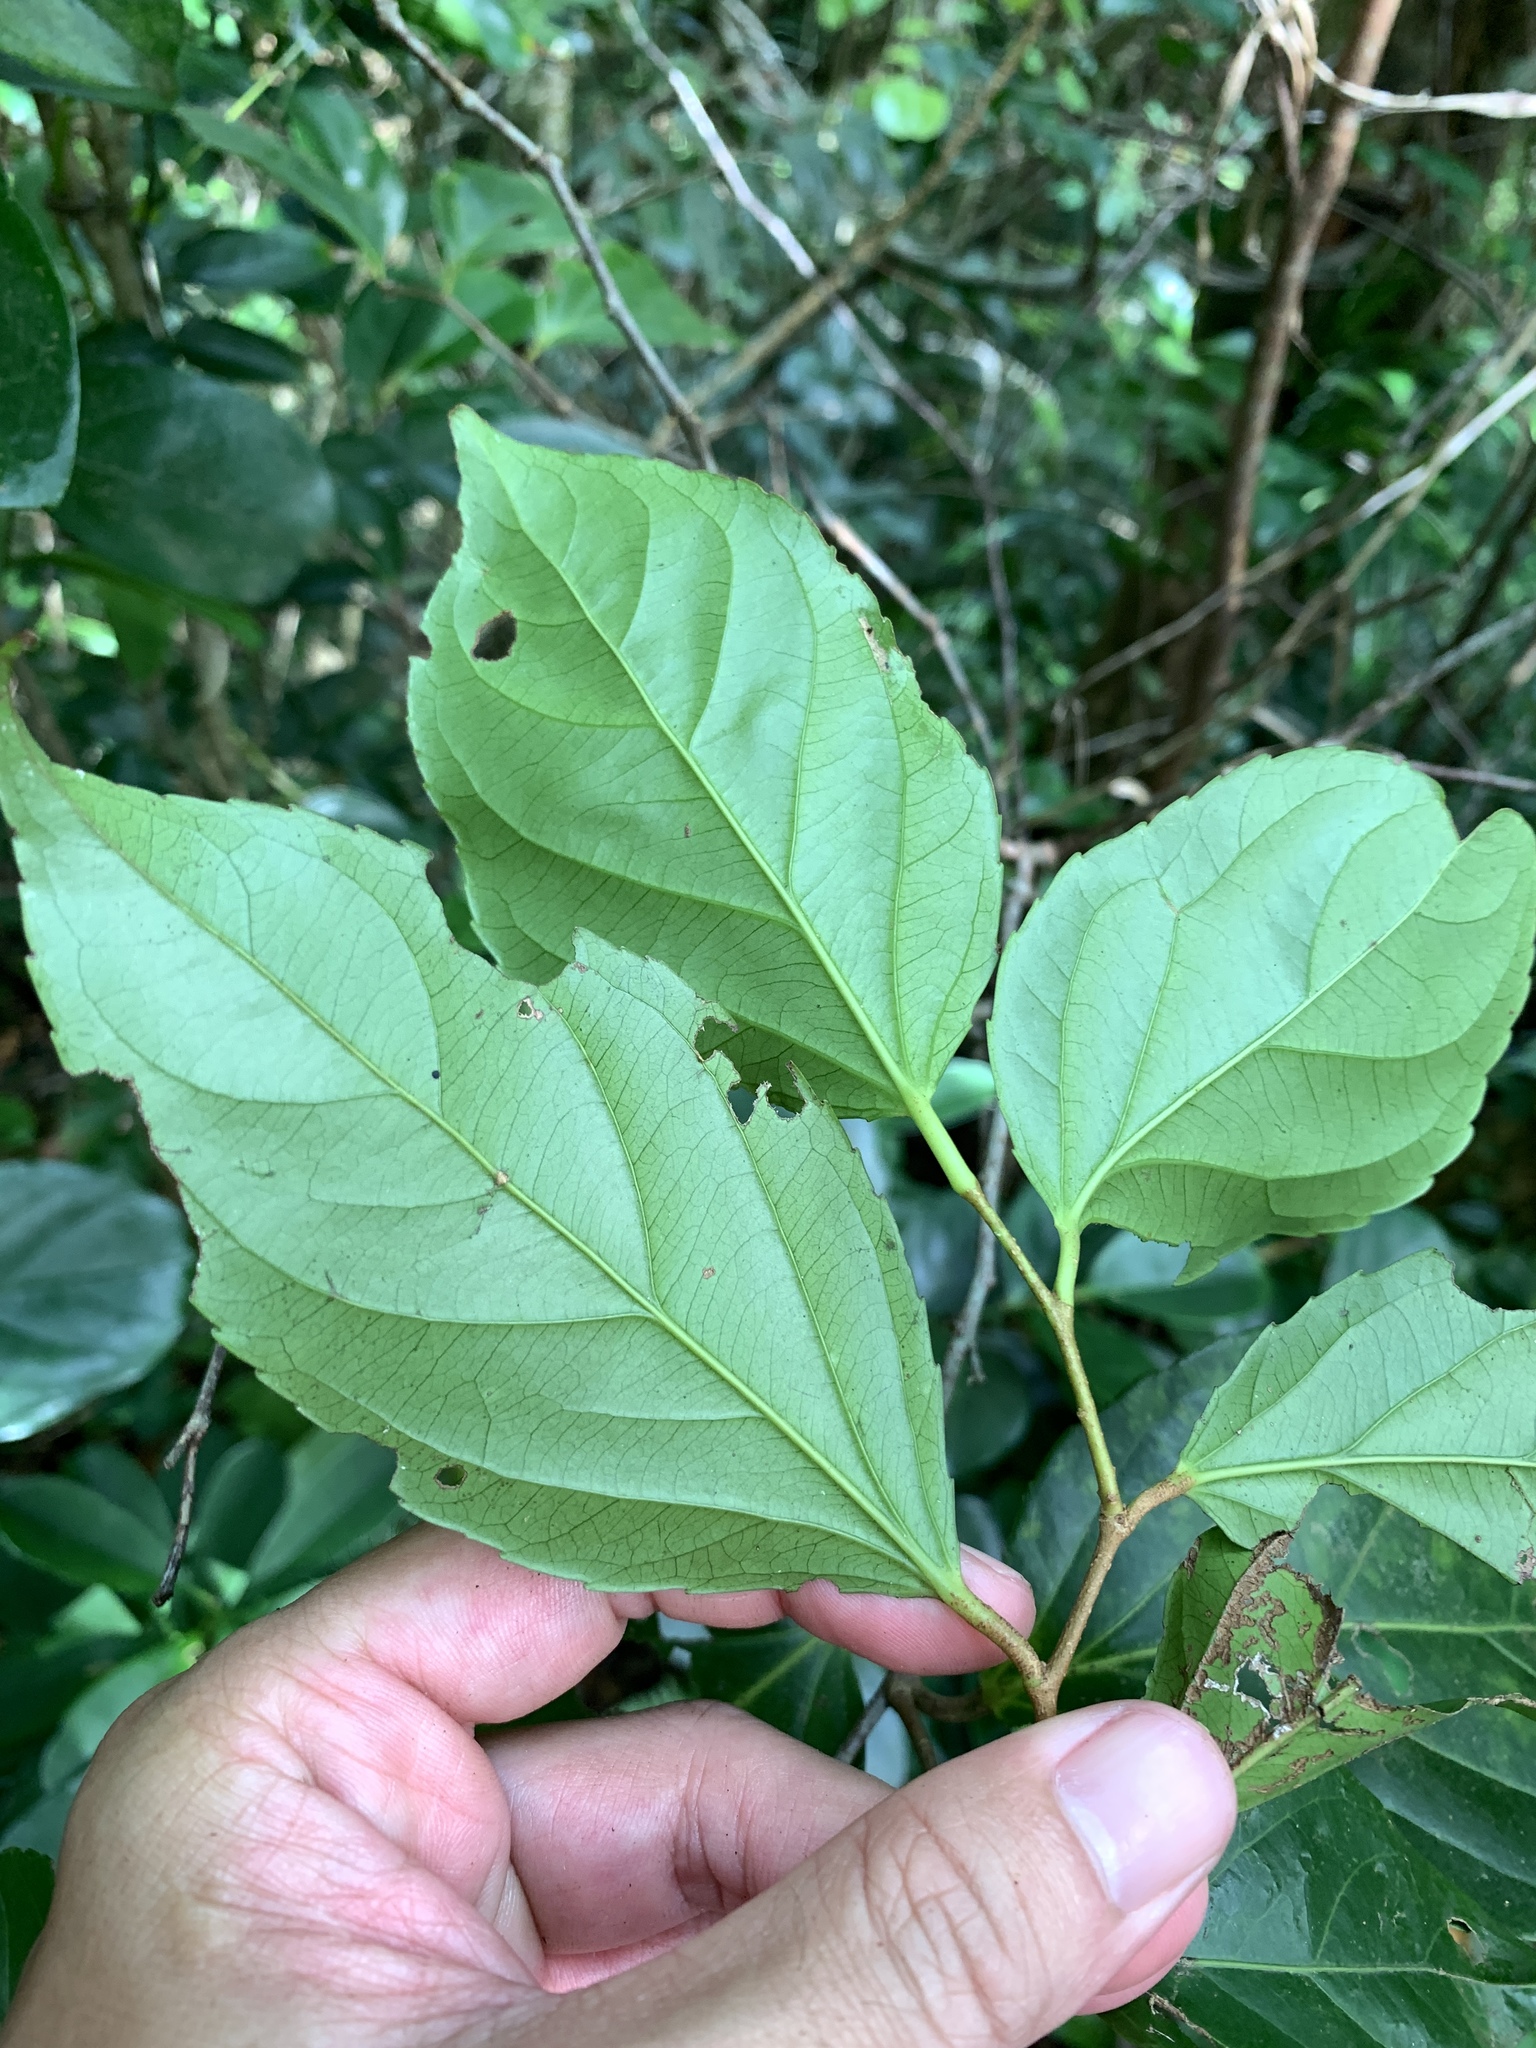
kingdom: Plantae
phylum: Tracheophyta
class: Magnoliopsida
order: Malpighiales
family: Salicaceae
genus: Flacourtia
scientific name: Flacourtia rukam
